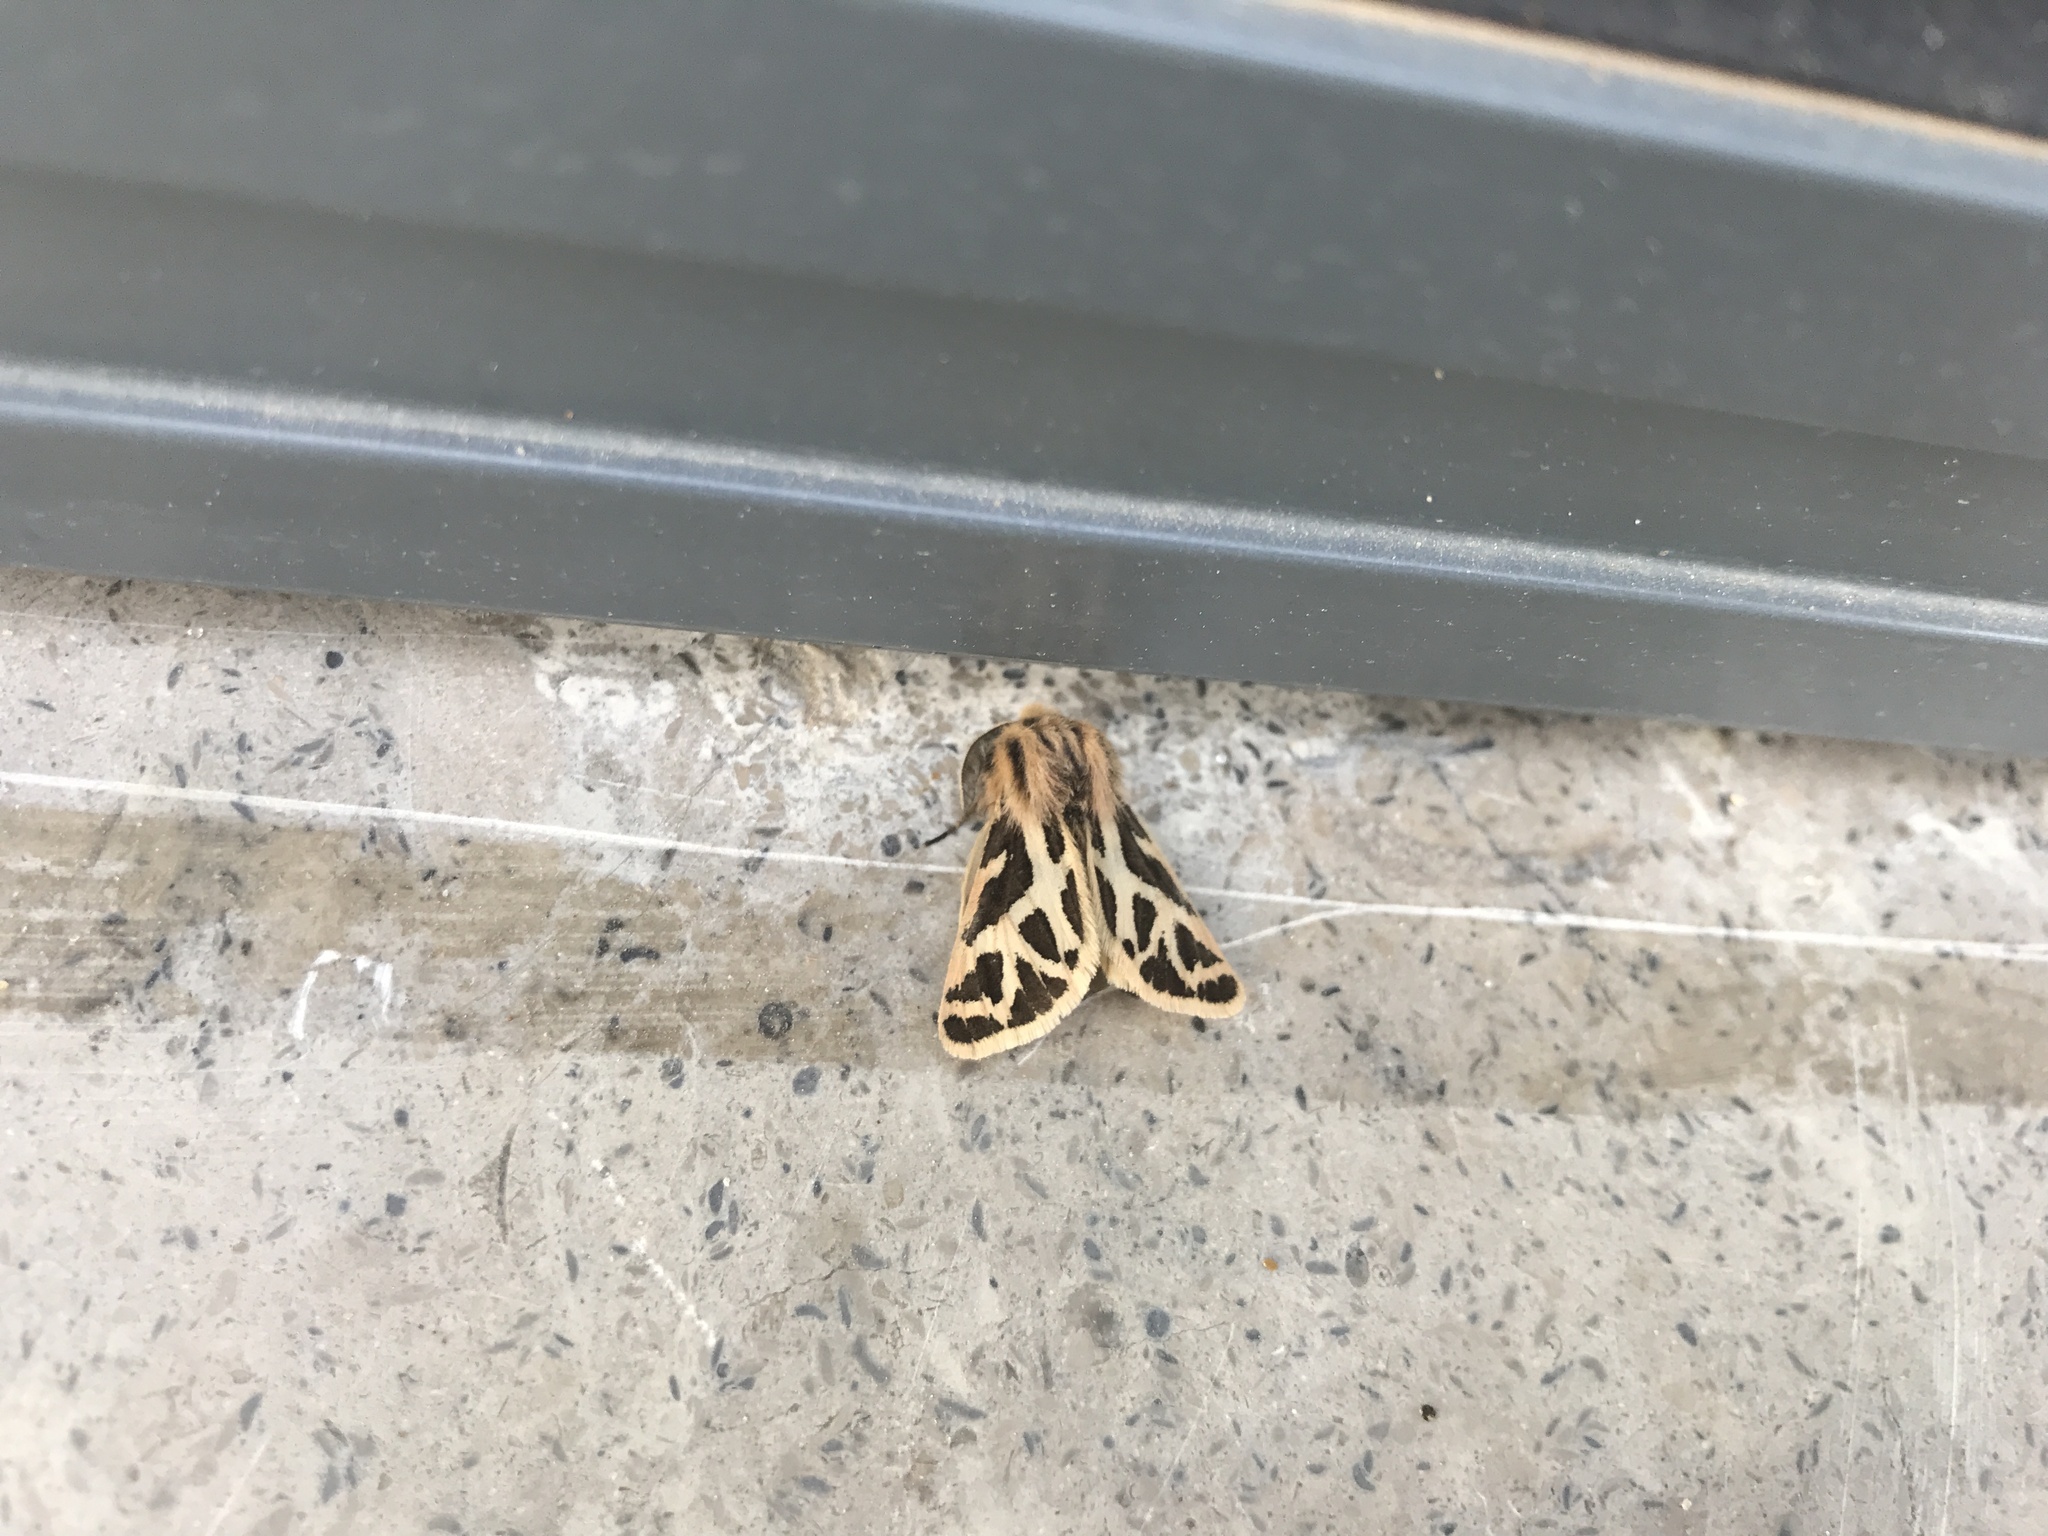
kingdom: Animalia
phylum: Arthropoda
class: Insecta
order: Lepidoptera
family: Erebidae
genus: Ocnogyna
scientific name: Ocnogyna loewii
